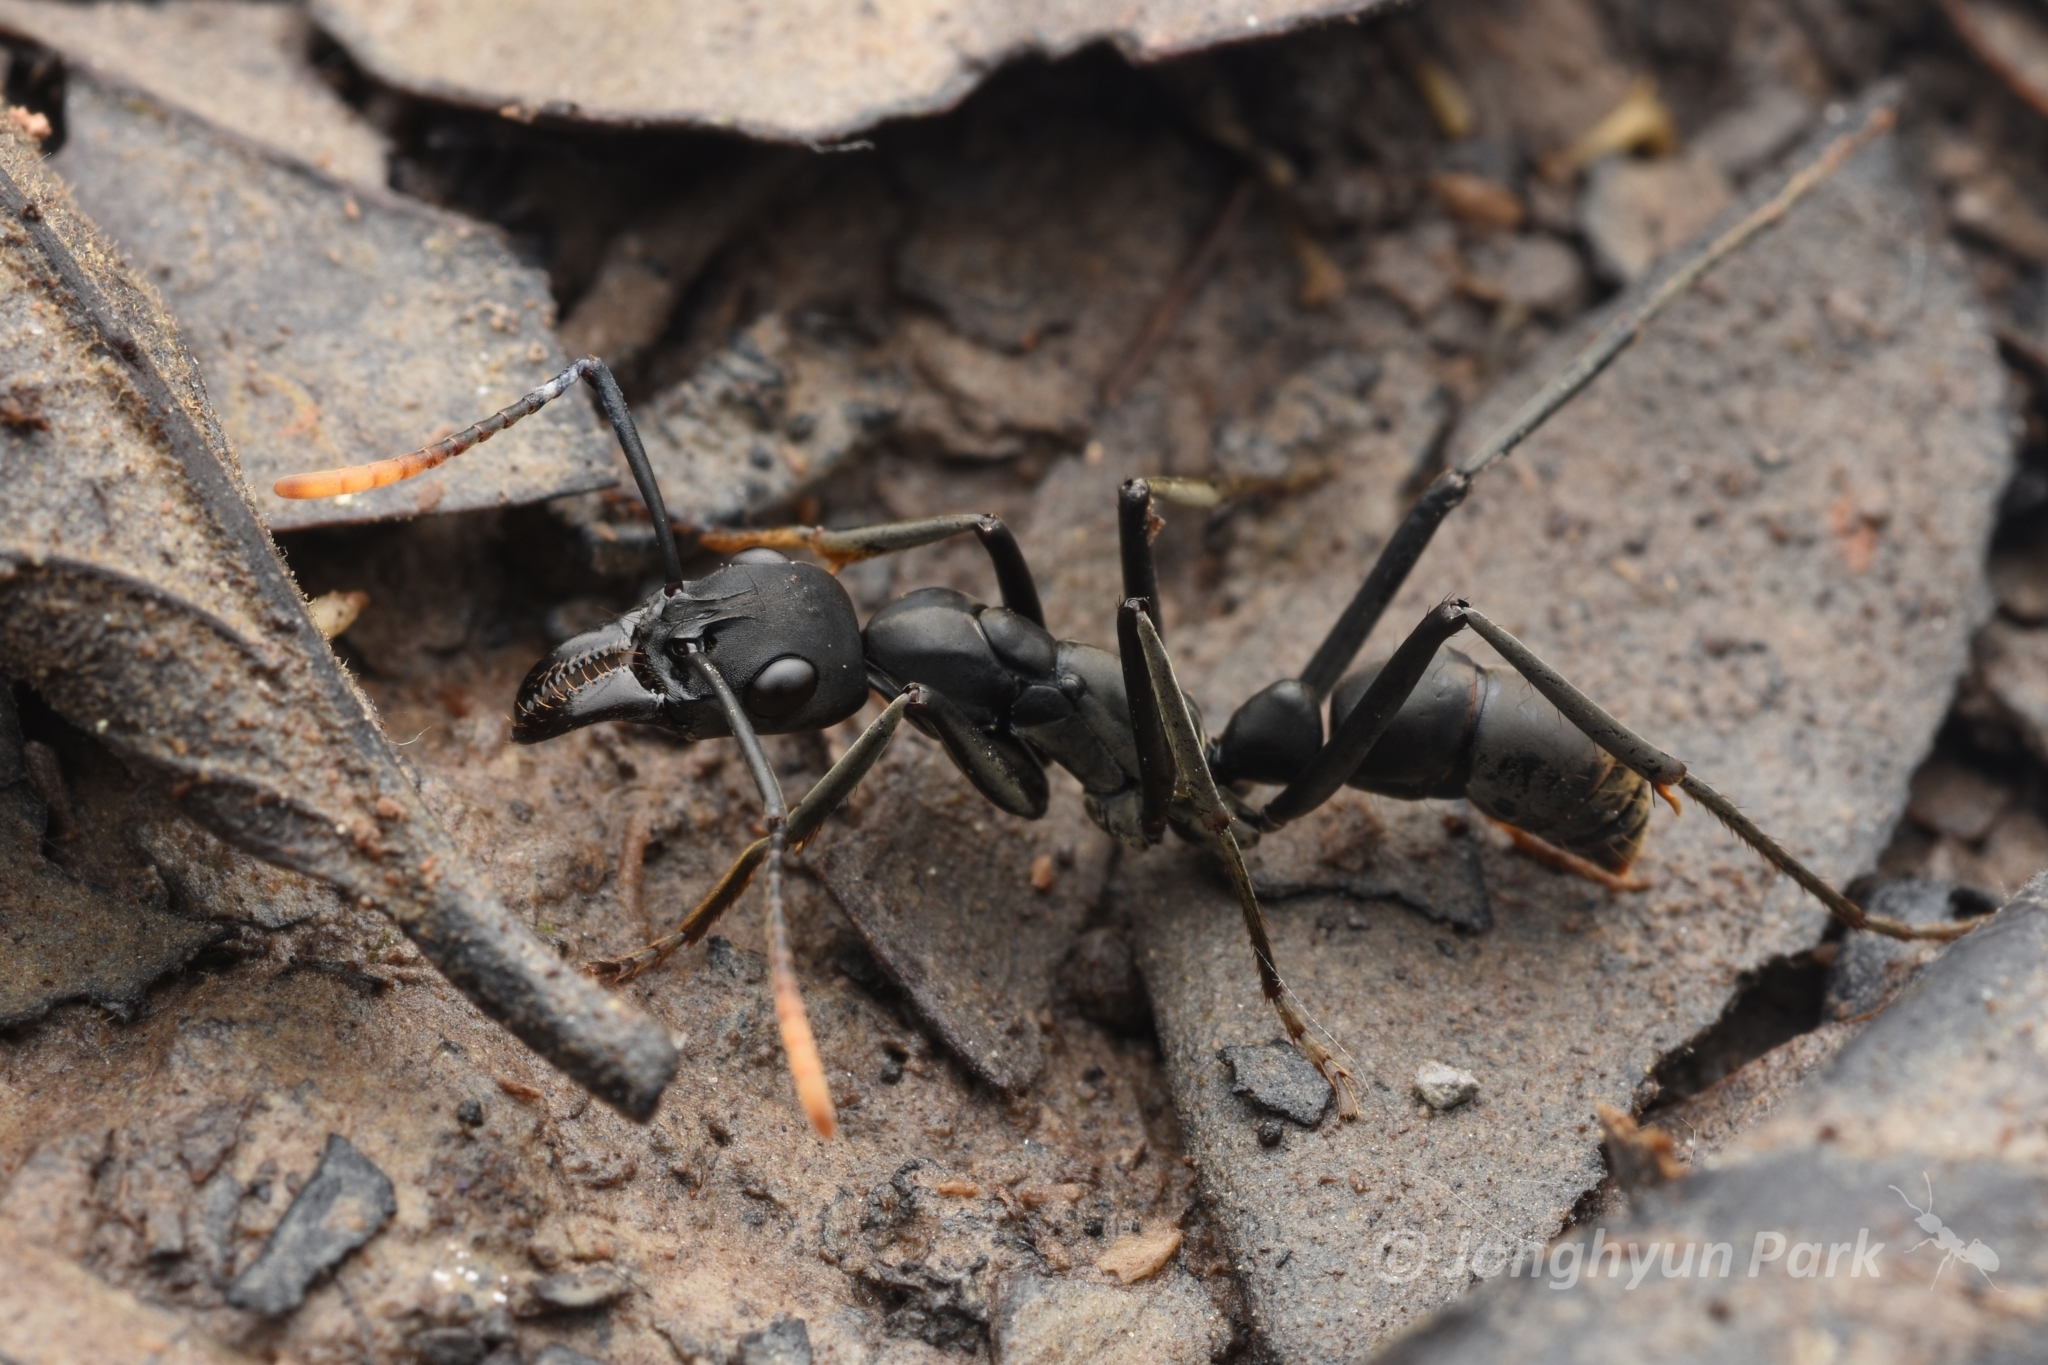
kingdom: Animalia
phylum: Arthropoda
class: Insecta
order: Hymenoptera
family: Formicidae
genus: Pachycondyla
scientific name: Pachycondyla apicalis
